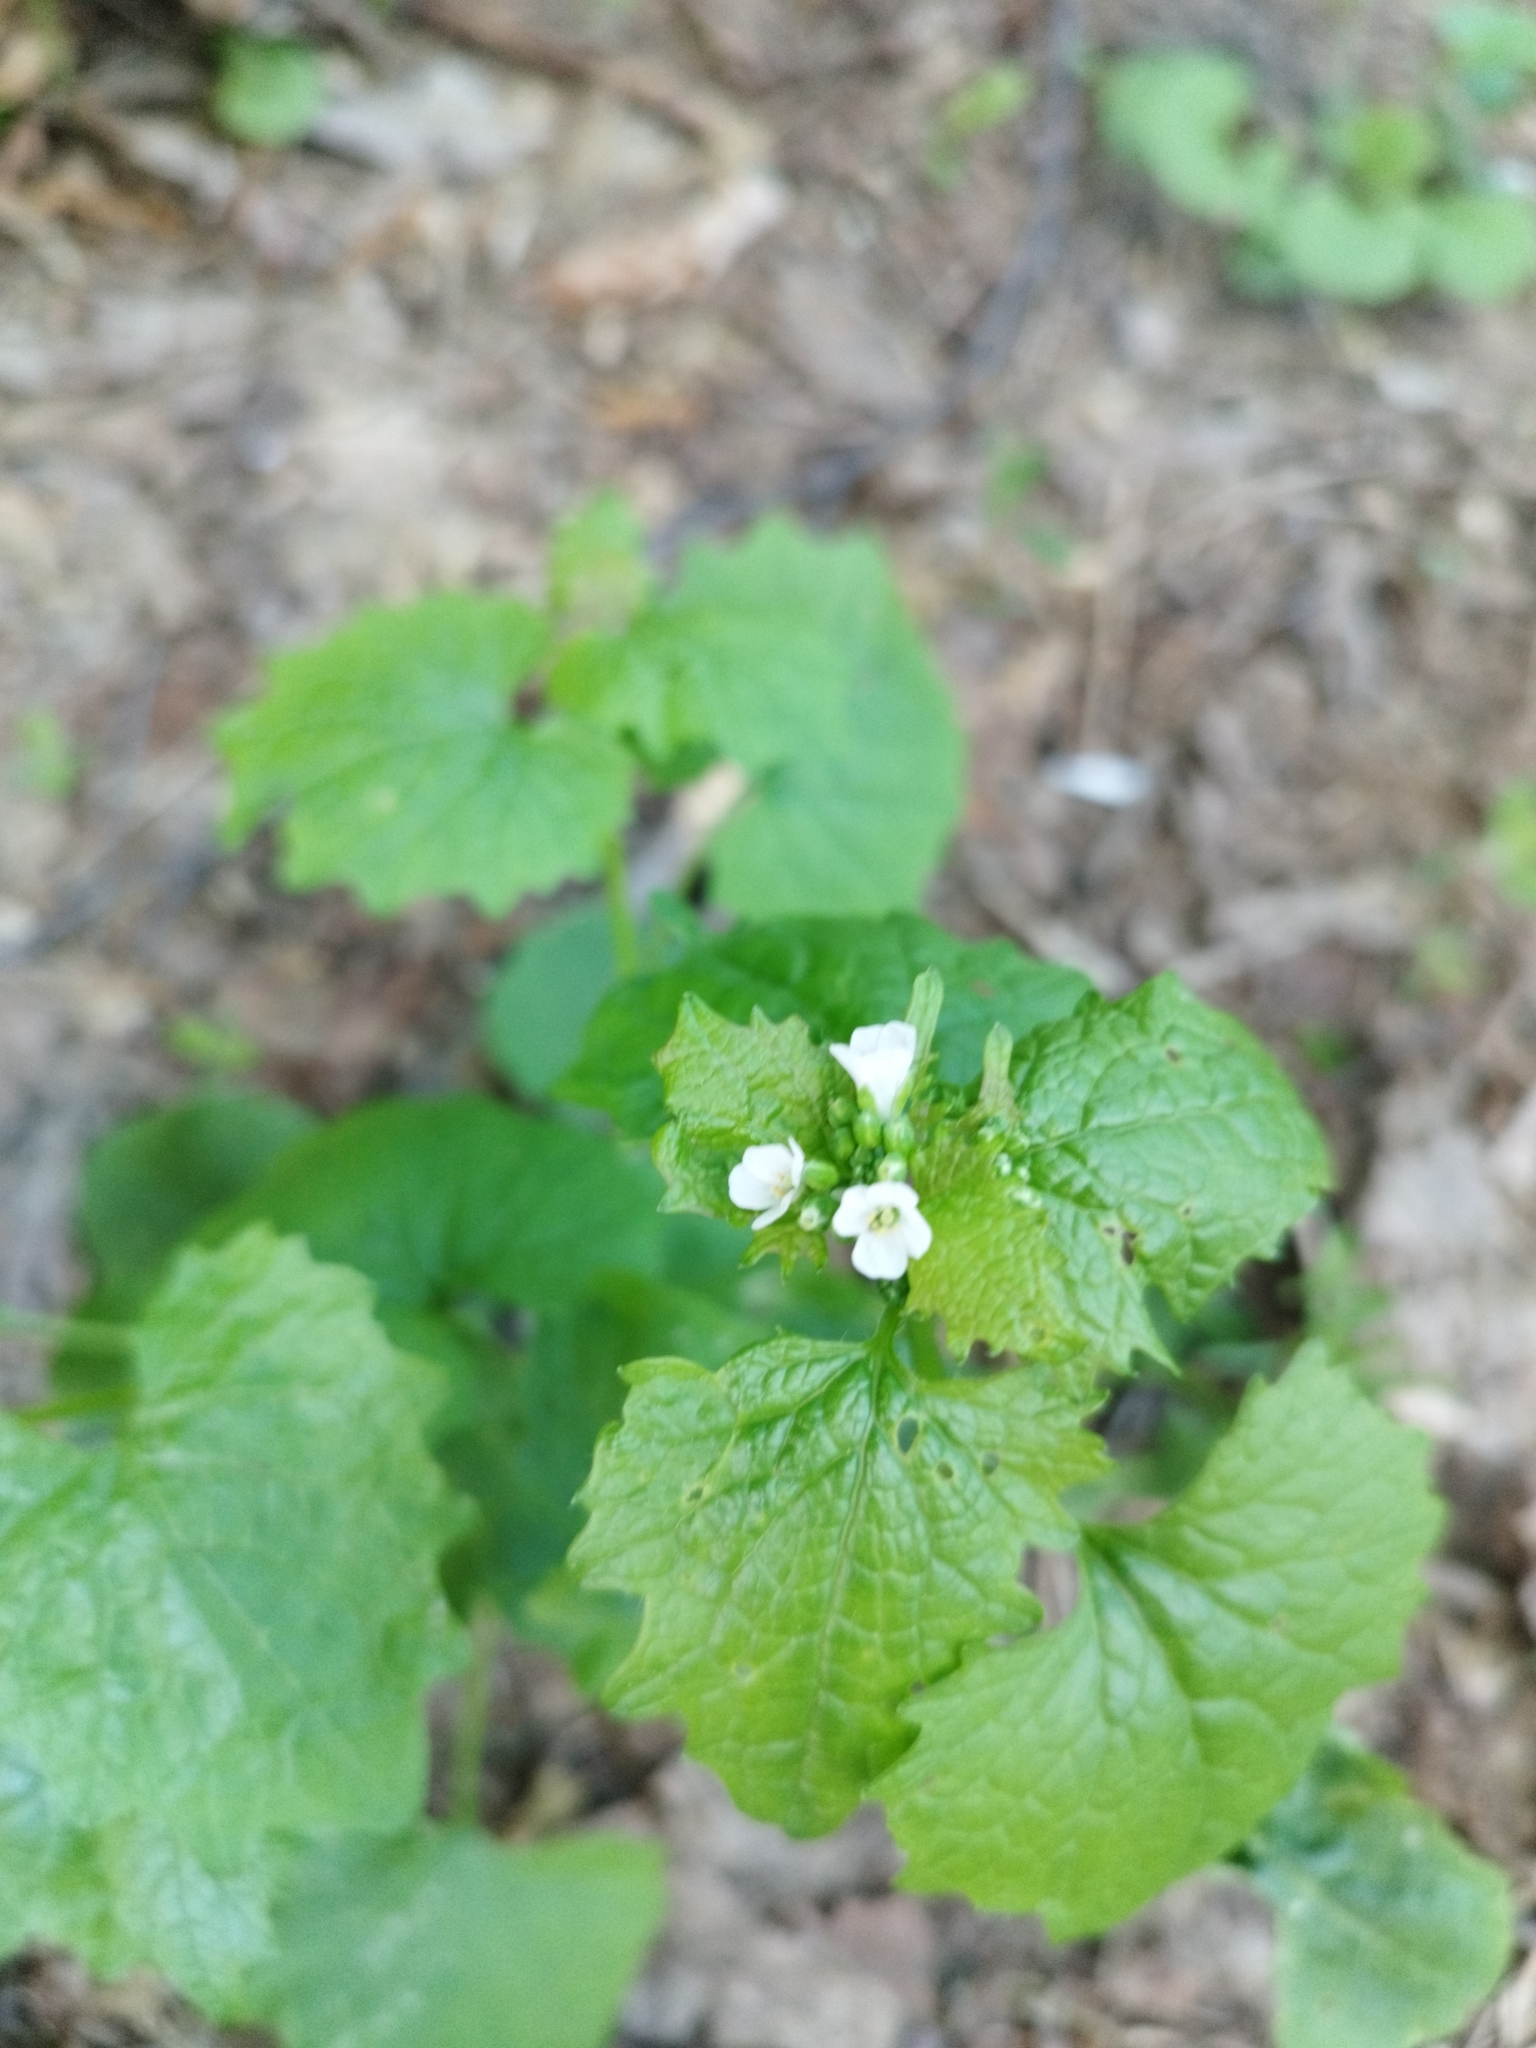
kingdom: Plantae
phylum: Tracheophyta
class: Magnoliopsida
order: Brassicales
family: Brassicaceae
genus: Alliaria
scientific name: Alliaria petiolata
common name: Garlic mustard
